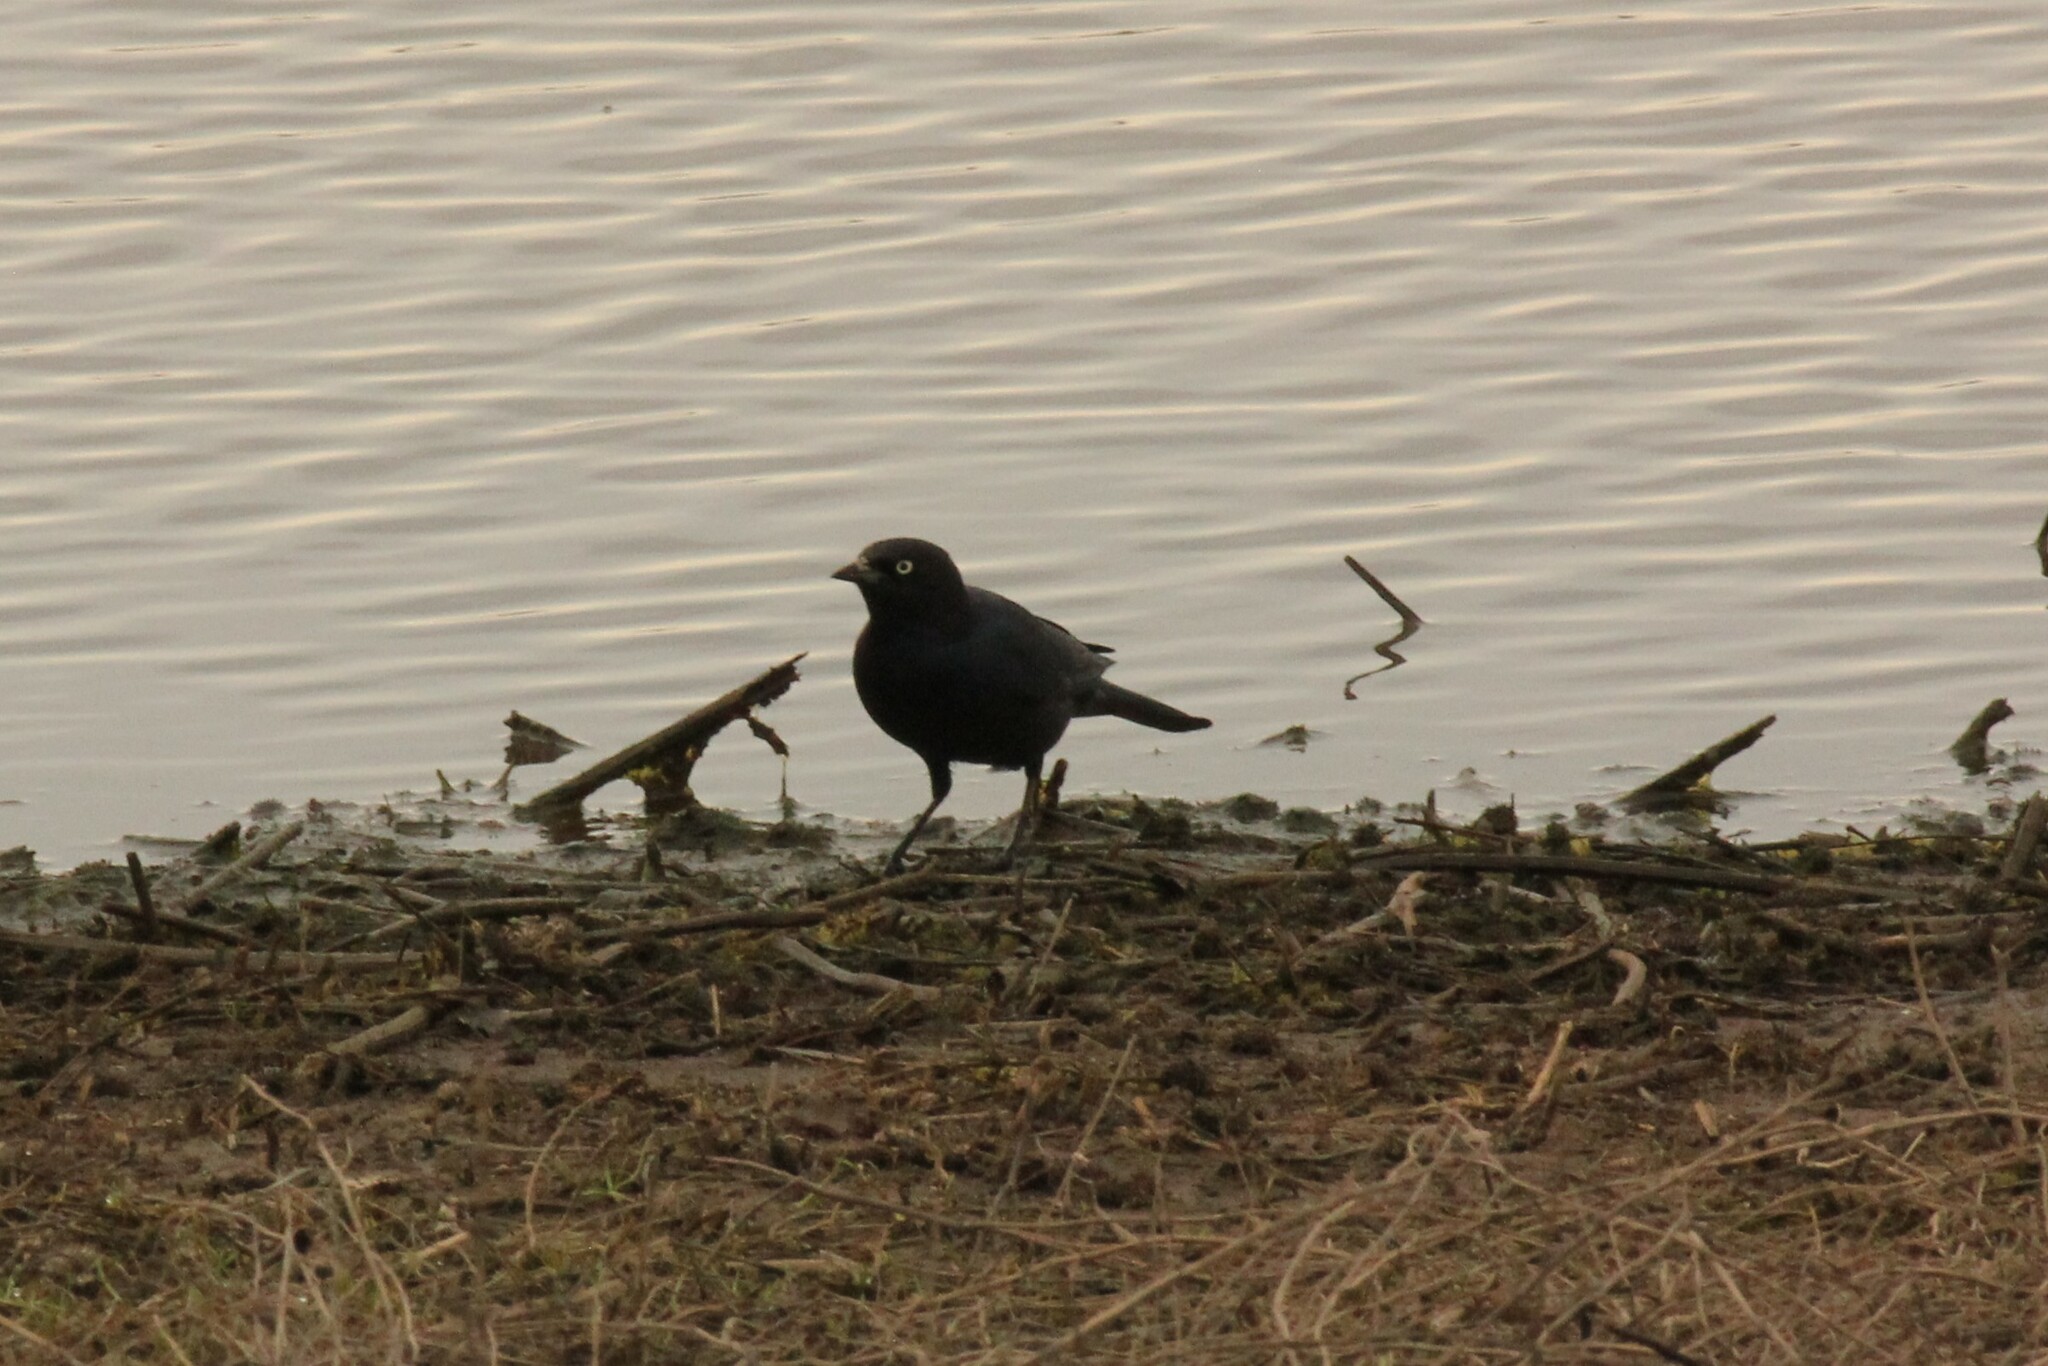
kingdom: Animalia
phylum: Chordata
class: Aves
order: Passeriformes
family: Icteridae
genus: Euphagus
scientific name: Euphagus cyanocephalus
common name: Brewer's blackbird
